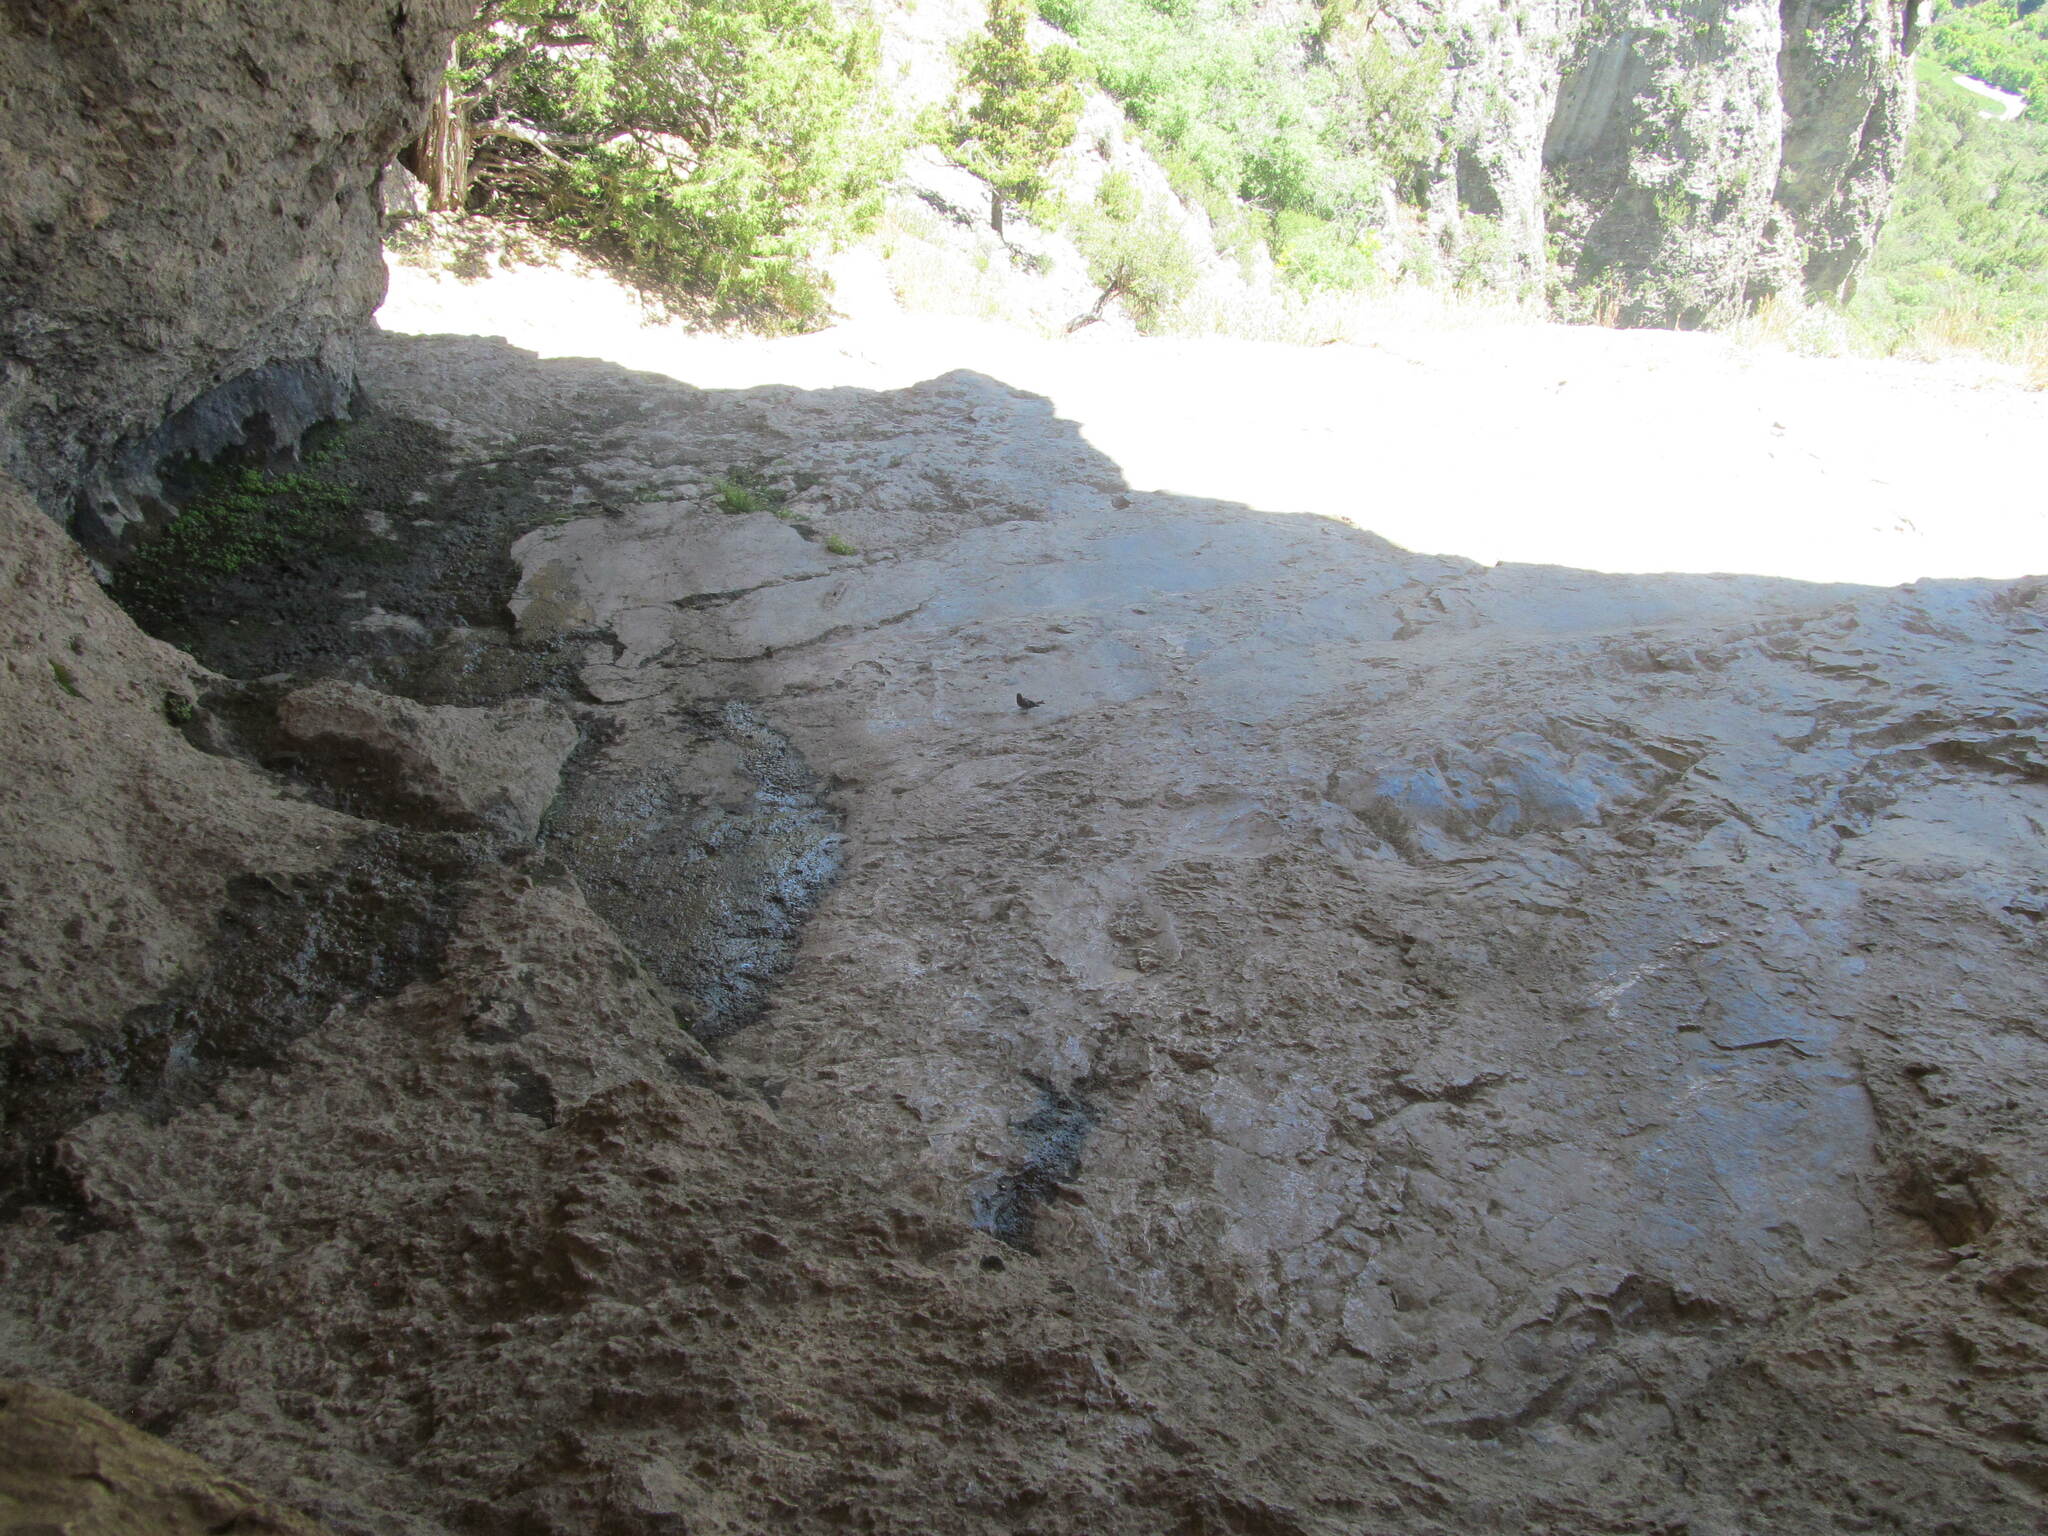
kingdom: Animalia
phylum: Chordata
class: Aves
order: Passeriformes
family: Fringillidae
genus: Spinus
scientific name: Spinus pinus
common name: Pine siskin
